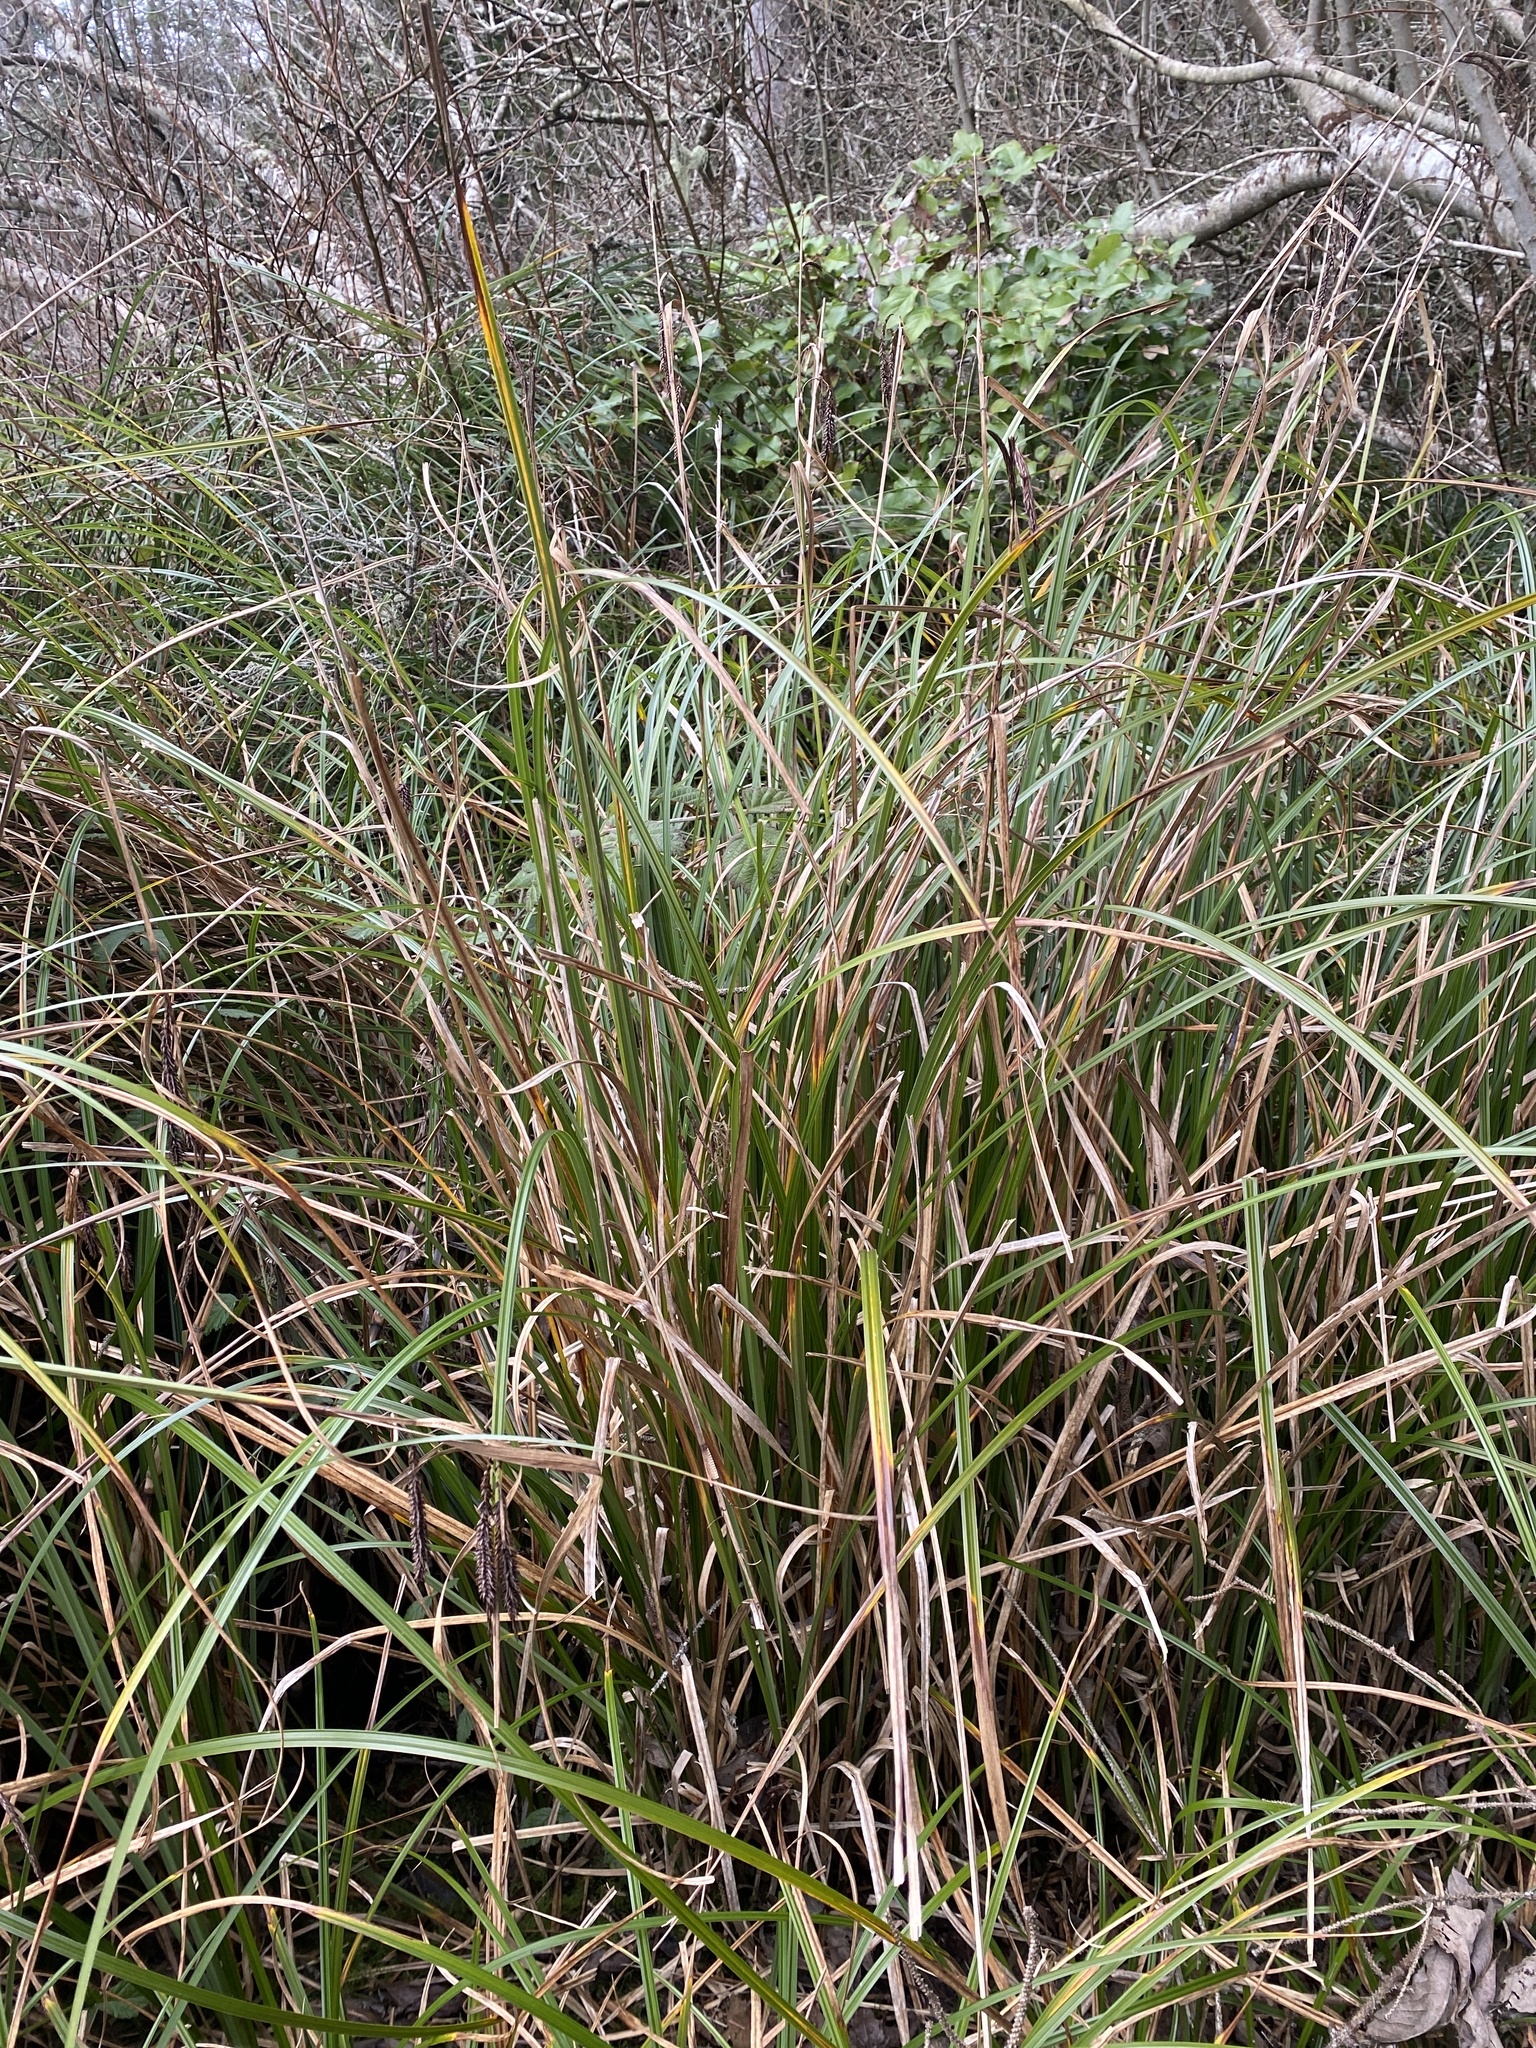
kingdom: Plantae
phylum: Tracheophyta
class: Liliopsida
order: Poales
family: Cyperaceae
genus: Carex
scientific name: Carex obnupta
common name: Slough sedge
